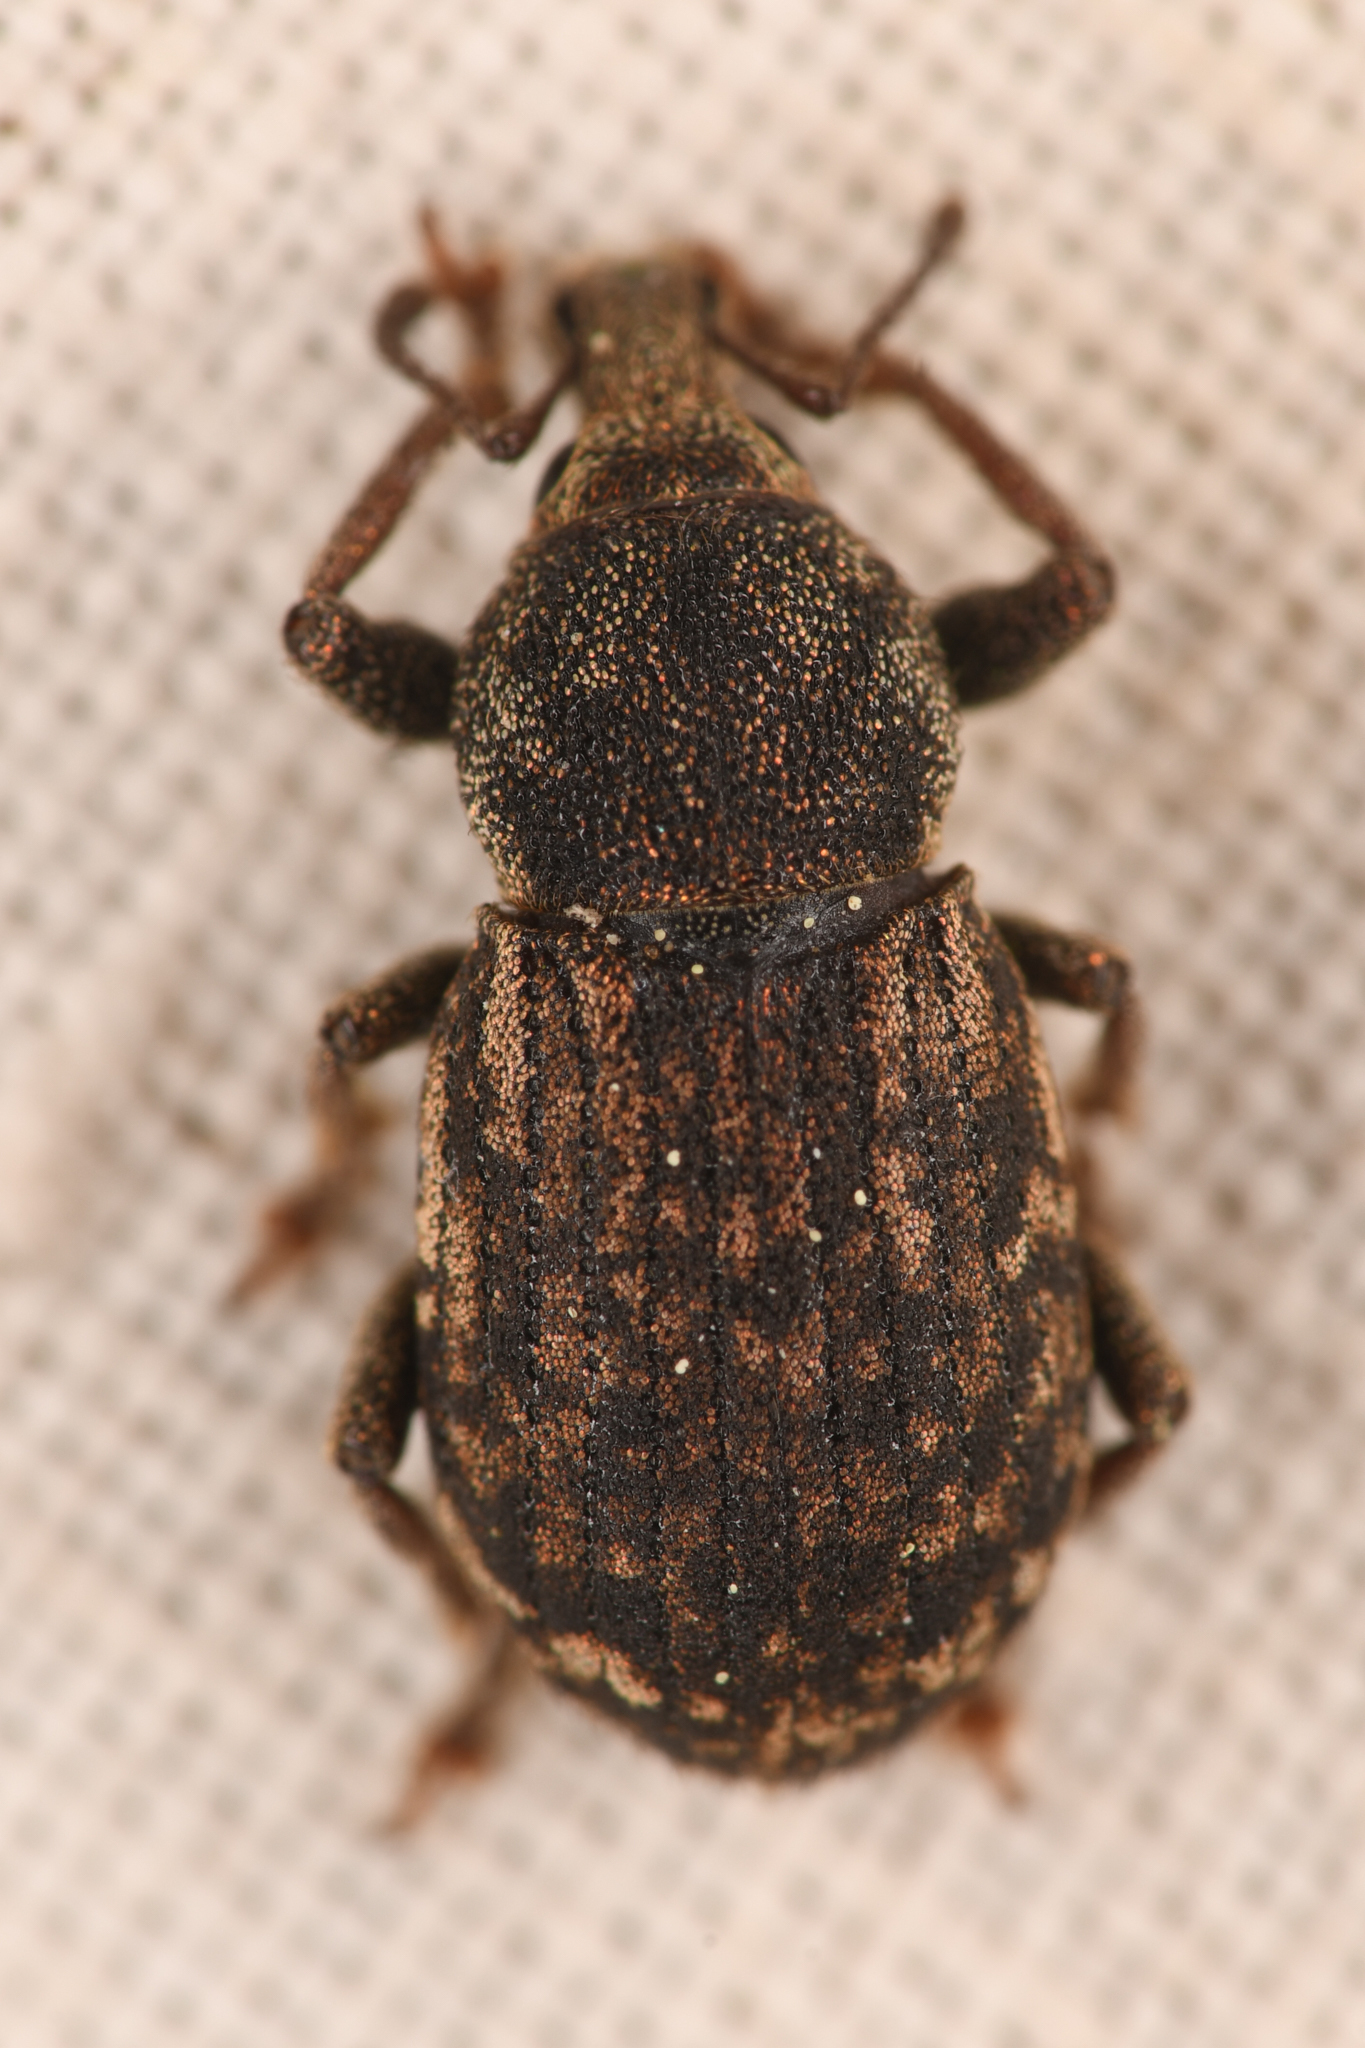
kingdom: Animalia
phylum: Arthropoda
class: Insecta
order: Coleoptera
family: Curculionidae
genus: Dyslobus
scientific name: Dyslobus bakeri
